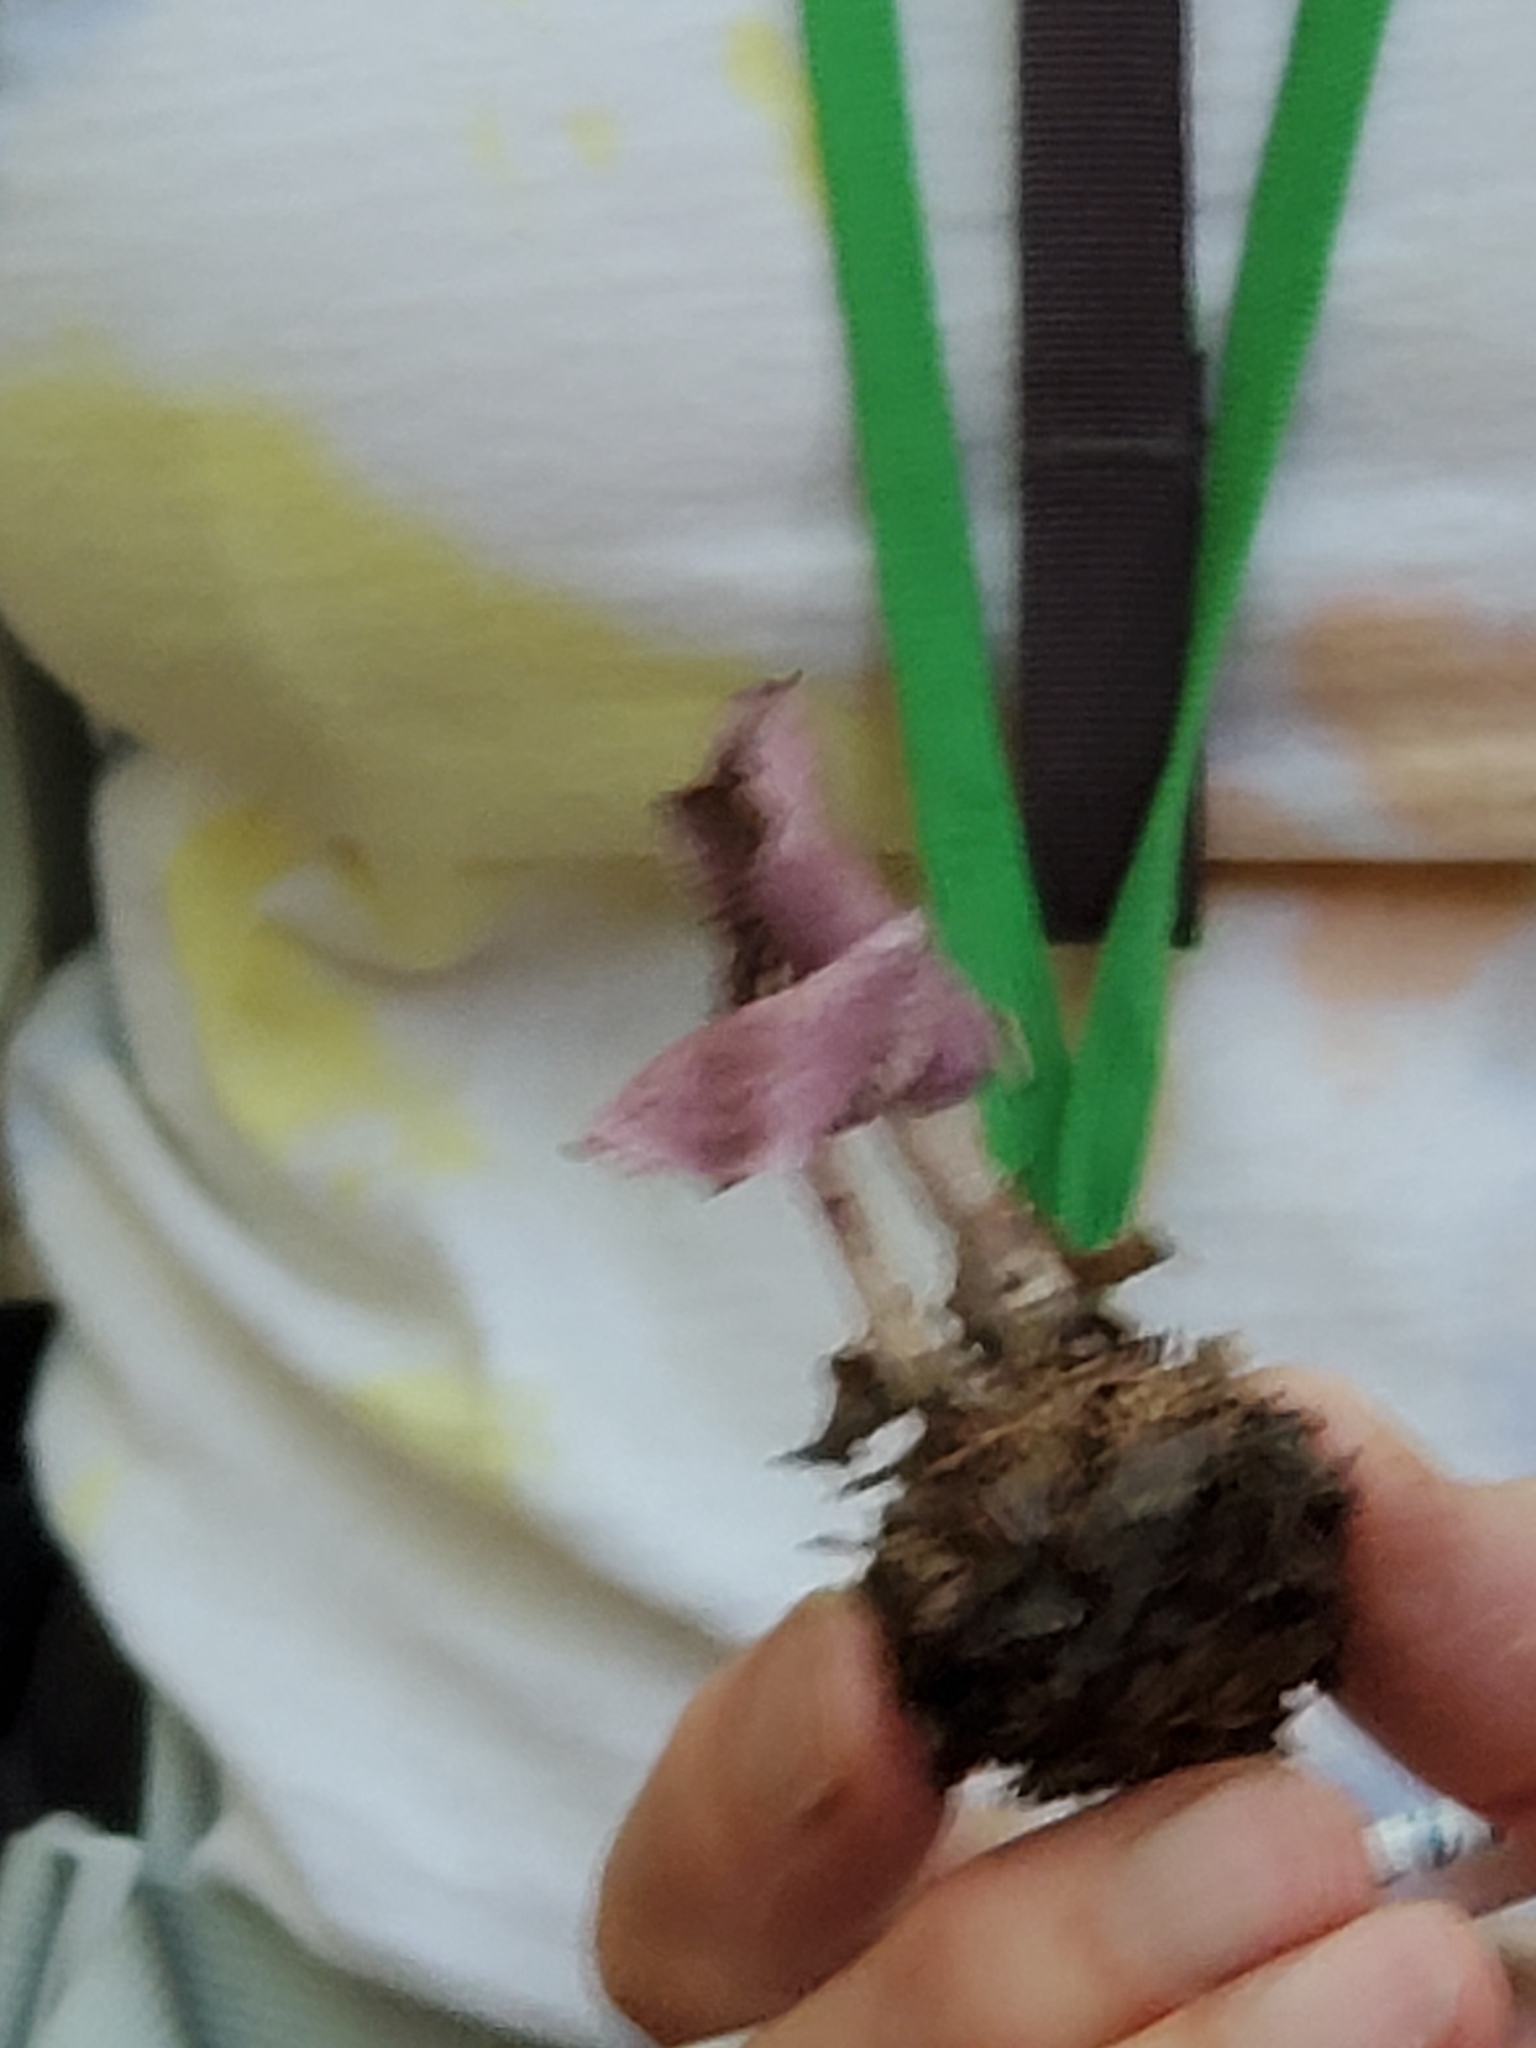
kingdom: Fungi
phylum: Basidiomycota
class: Agaricomycetes
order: Agaricales
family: Omphalotaceae
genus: Gymnopus
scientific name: Gymnopus iocephalus
